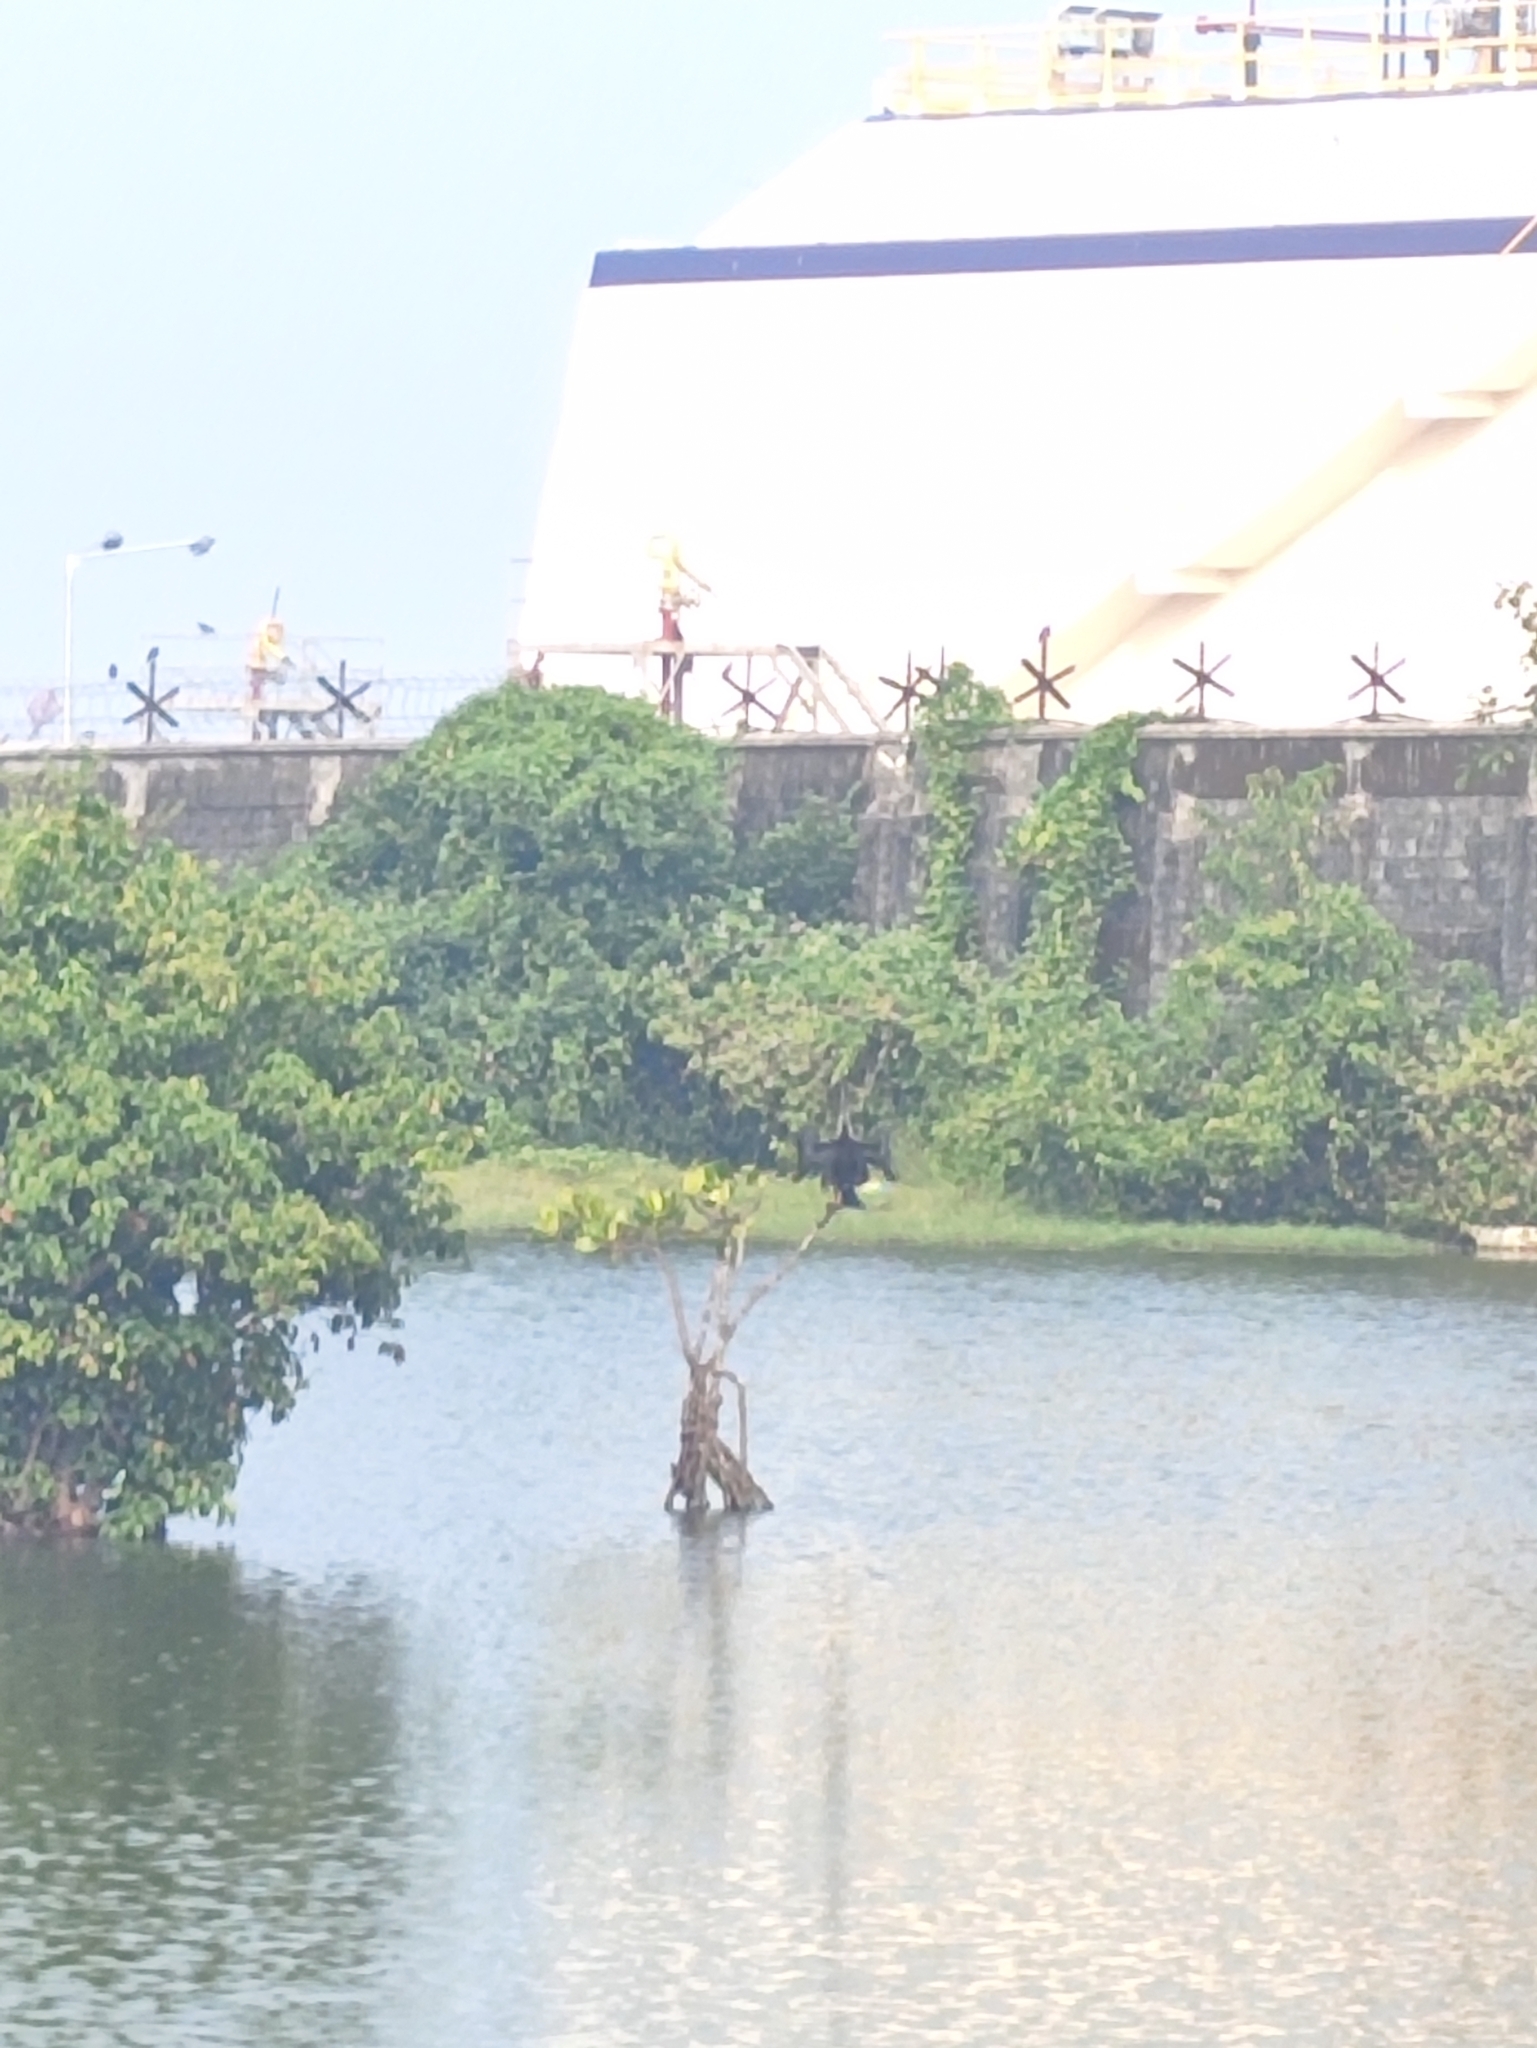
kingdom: Animalia
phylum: Chordata
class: Aves
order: Suliformes
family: Anhingidae
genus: Anhinga
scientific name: Anhinga melanogaster
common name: Oriental darter
